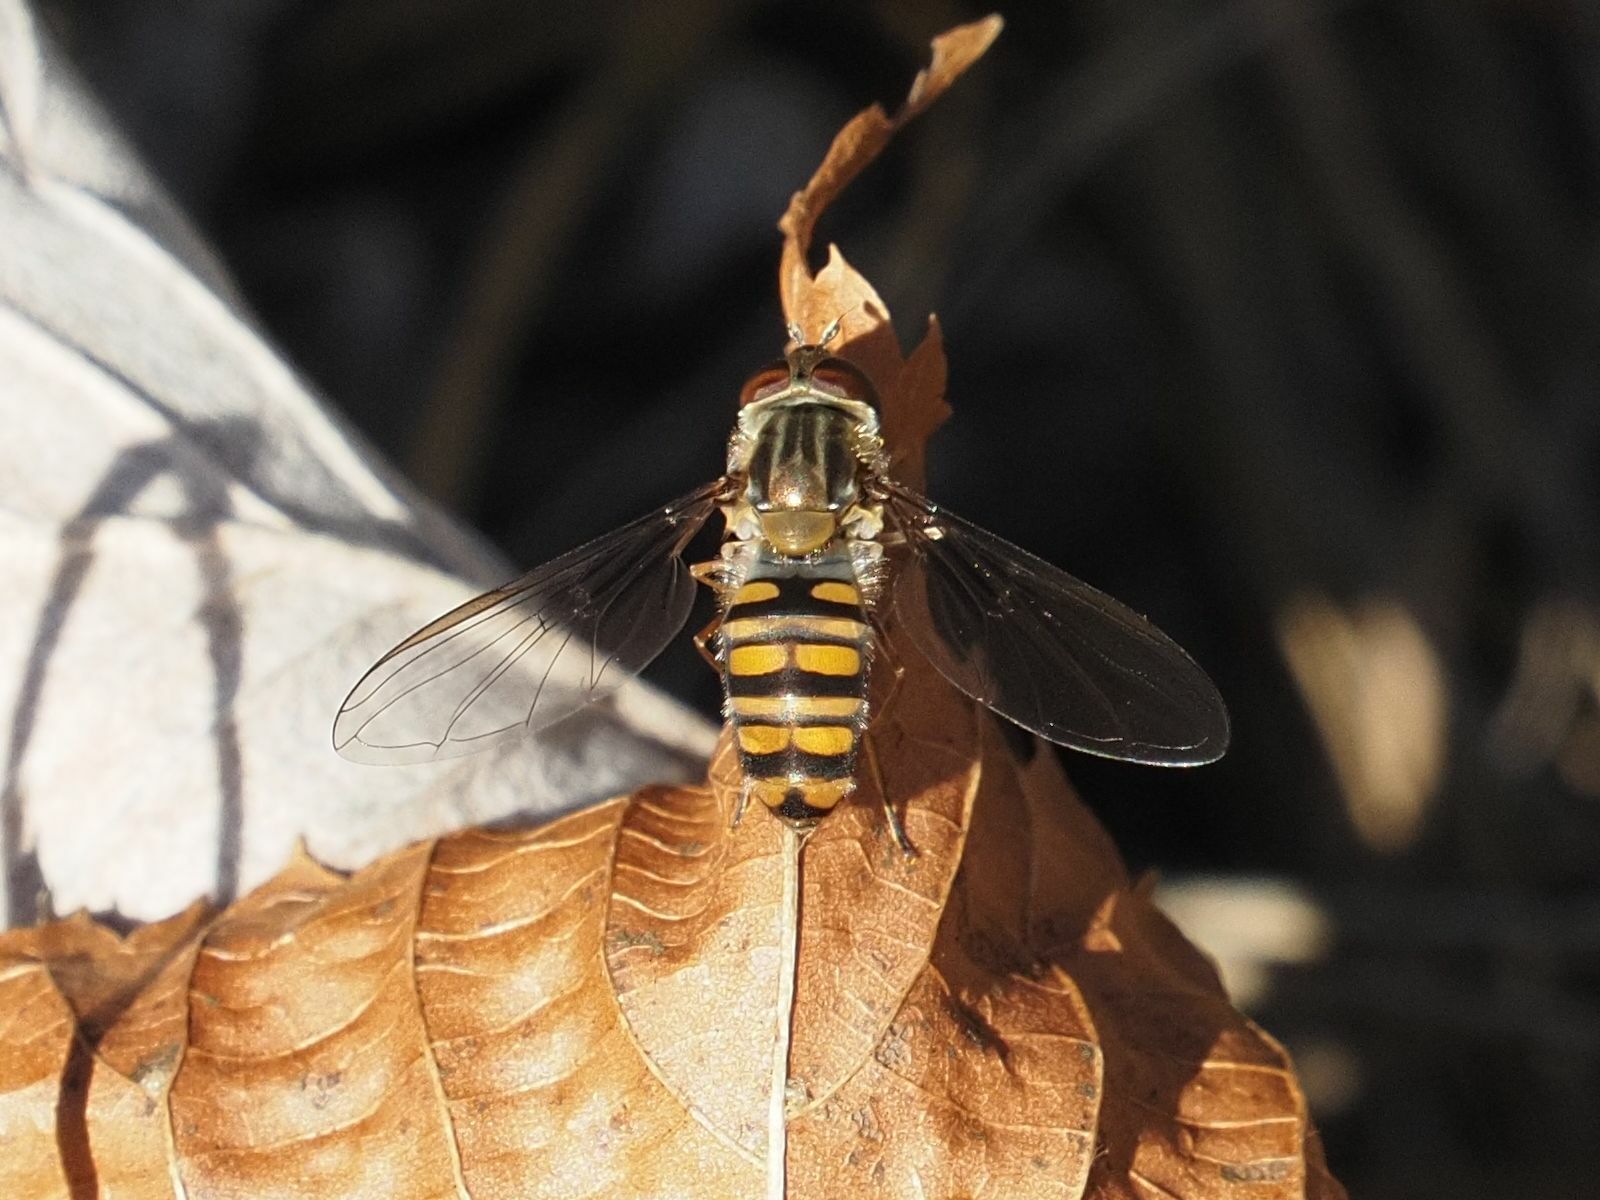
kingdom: Animalia
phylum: Arthropoda
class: Insecta
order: Diptera
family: Syrphidae
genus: Episyrphus
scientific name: Episyrphus balteatus
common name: Marmalade hoverfly
